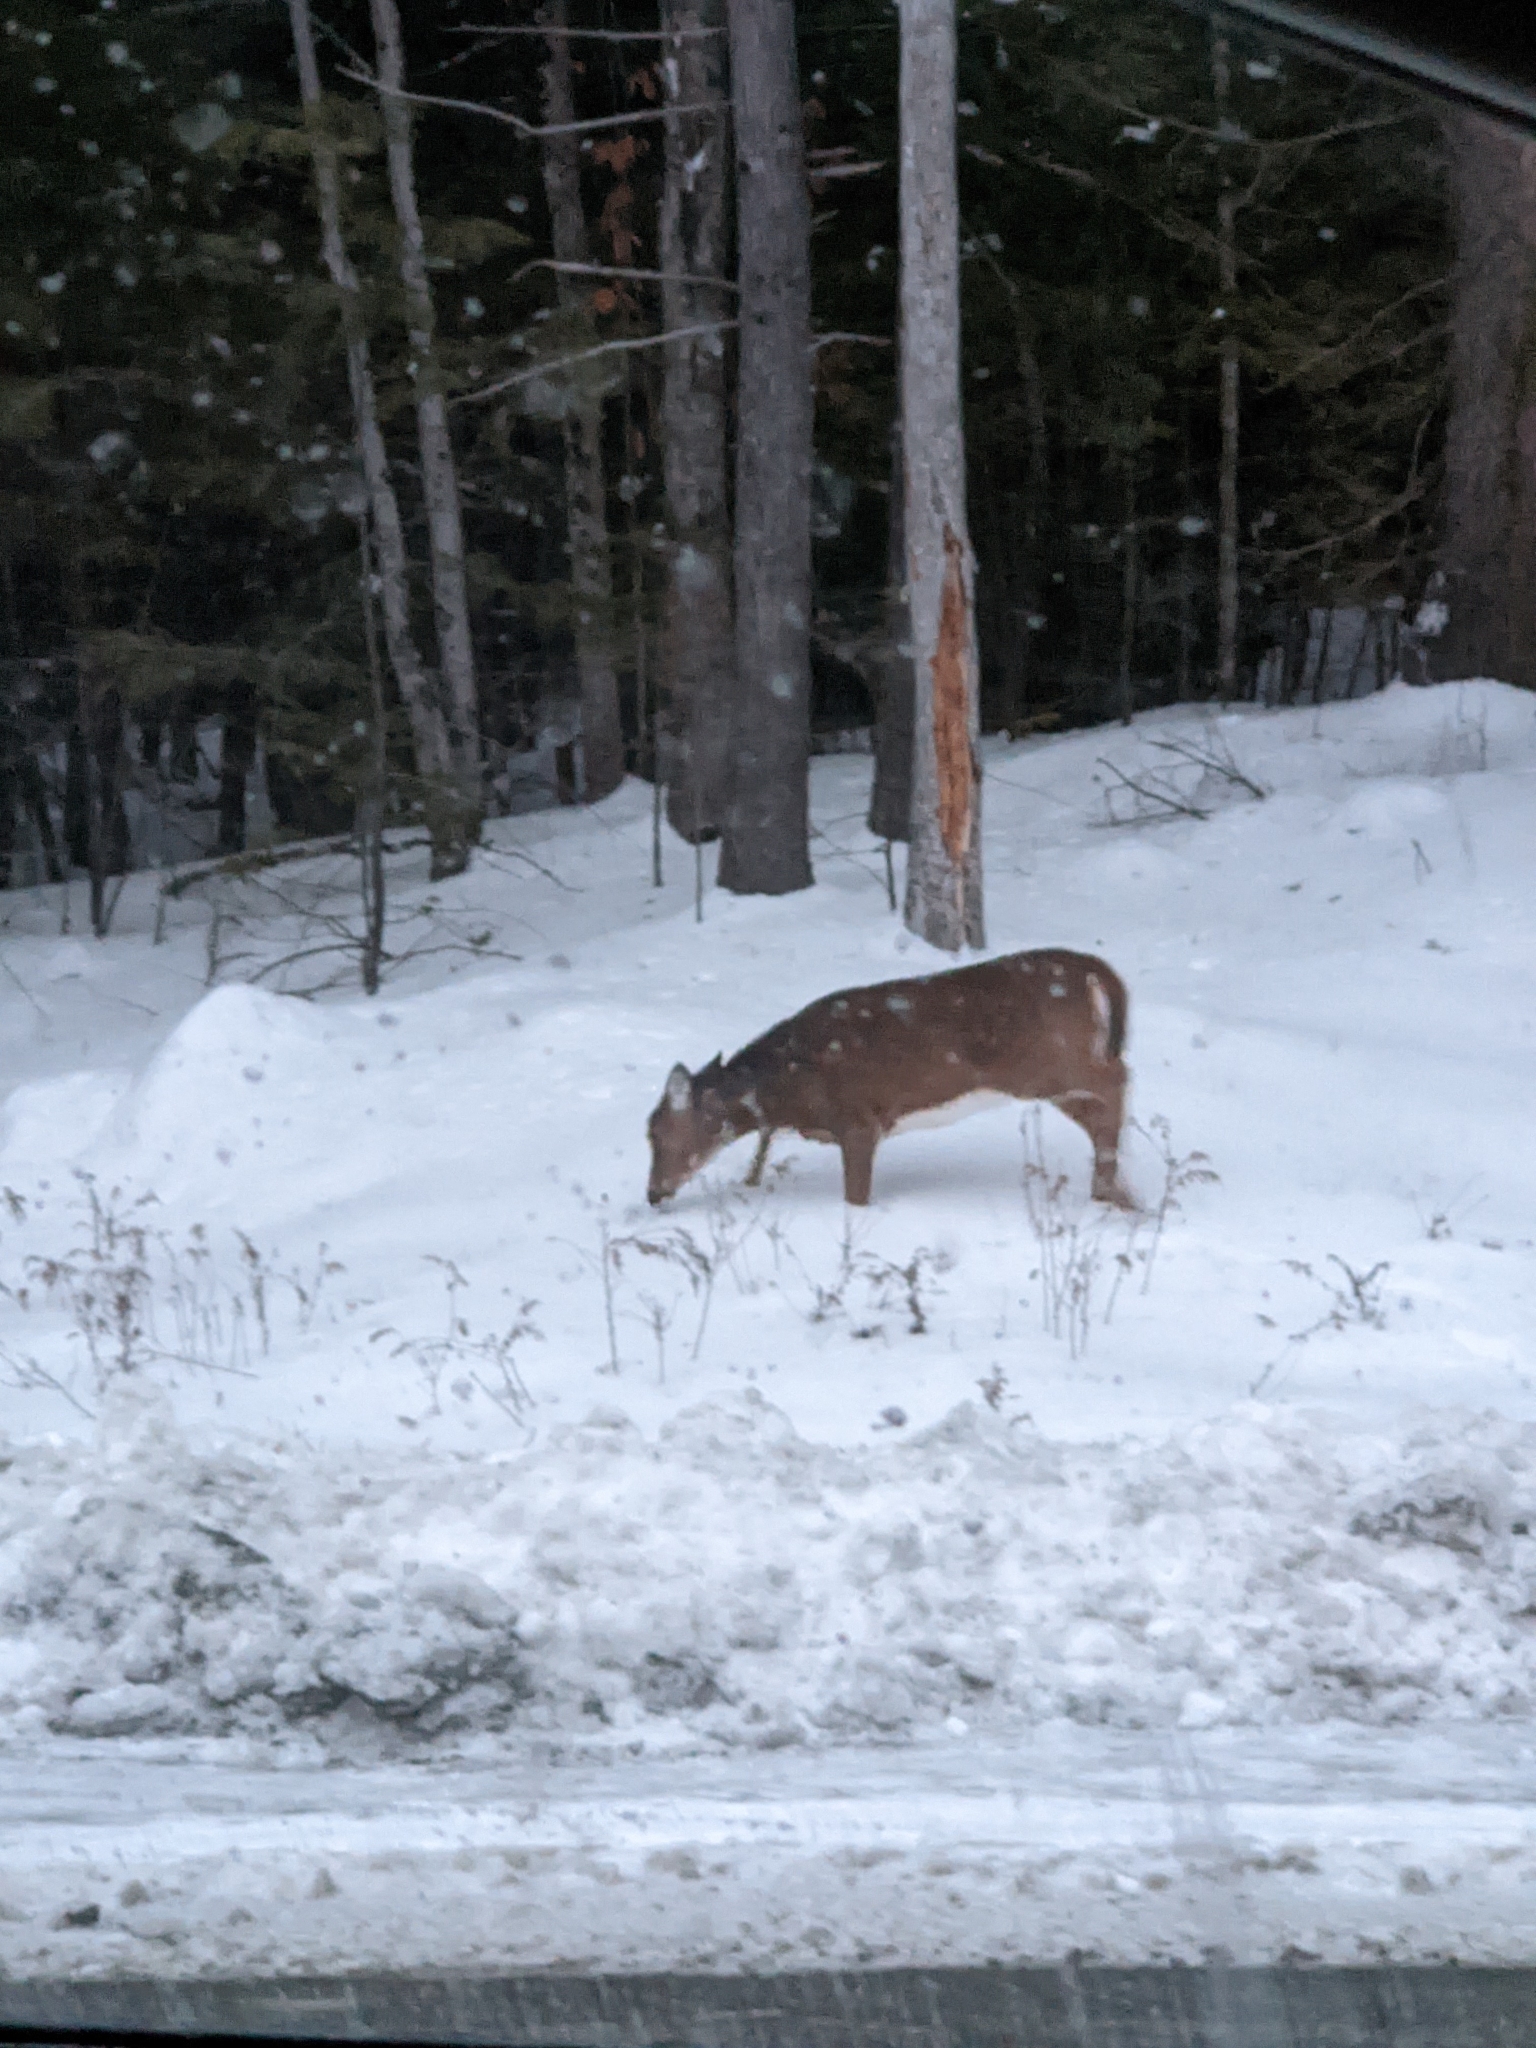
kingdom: Animalia
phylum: Chordata
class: Mammalia
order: Artiodactyla
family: Cervidae
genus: Odocoileus
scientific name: Odocoileus virginianus
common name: White-tailed deer
